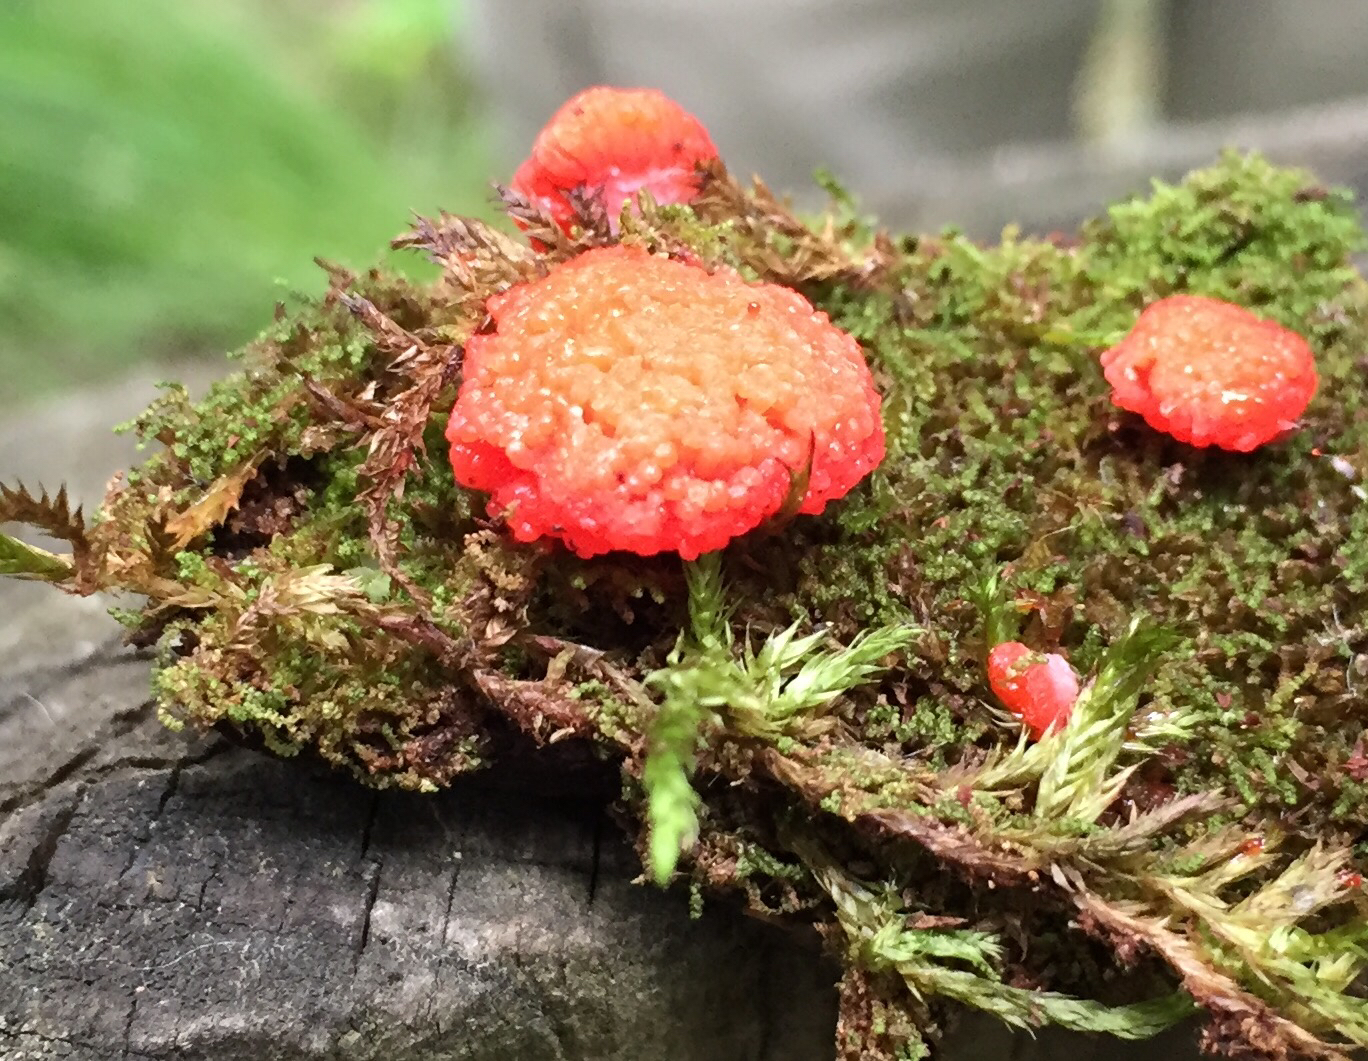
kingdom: Protozoa
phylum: Mycetozoa
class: Myxomycetes
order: Cribrariales
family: Tubiferaceae
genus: Tubifera
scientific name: Tubifera ferruginosa
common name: Red raspberry slime mold
